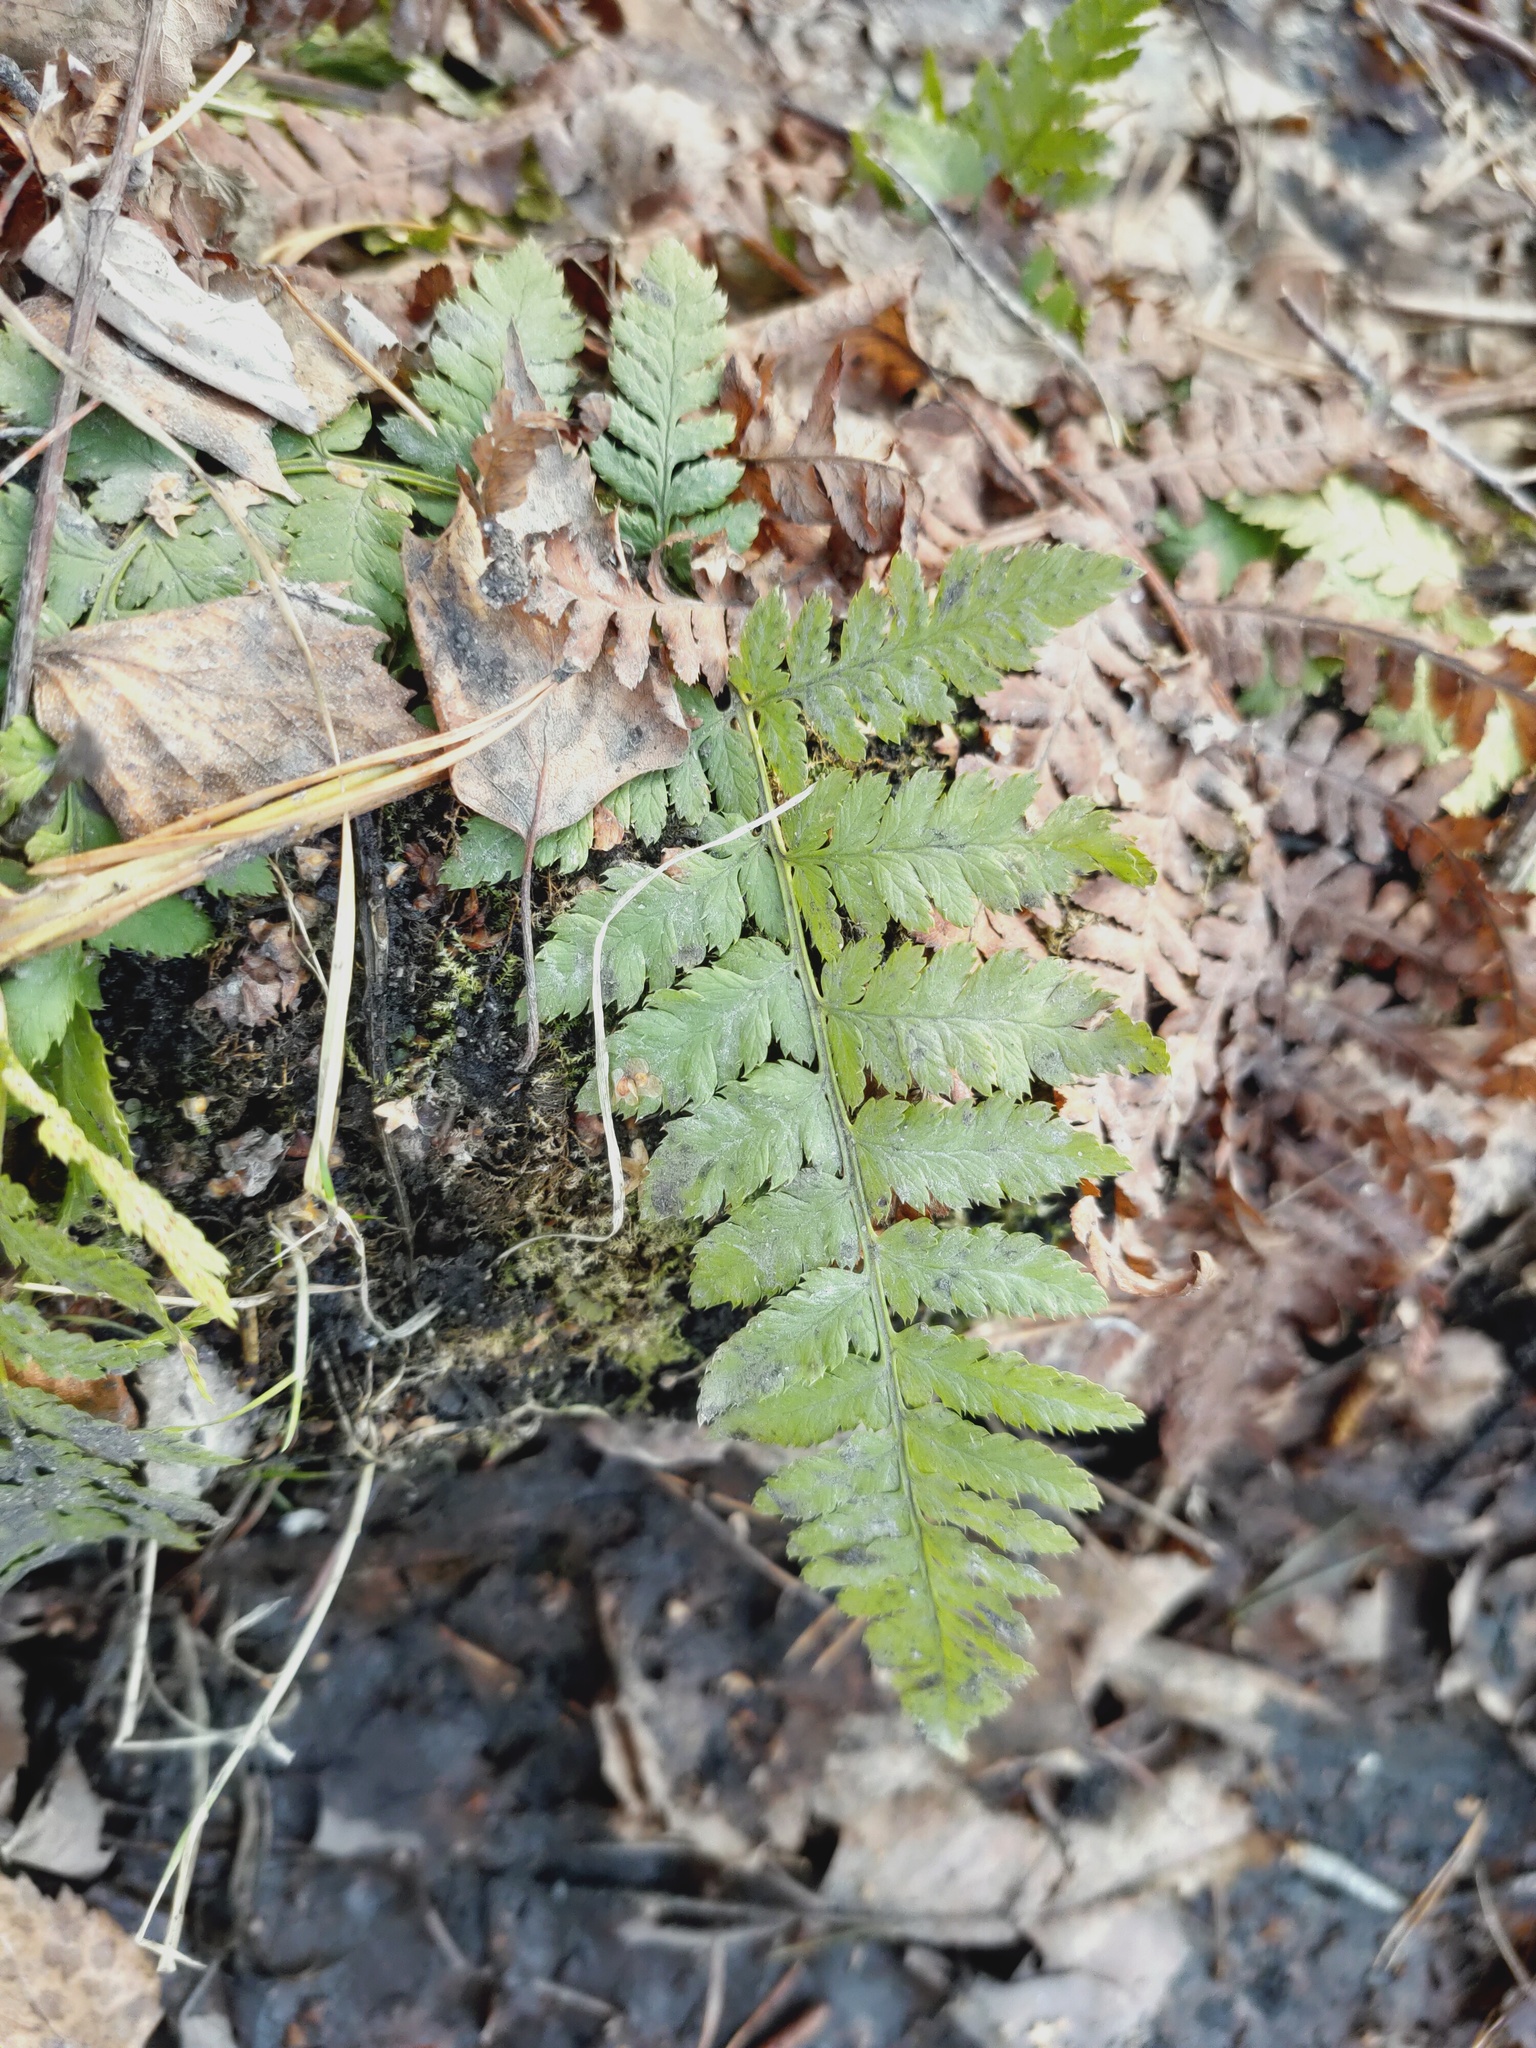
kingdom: Plantae
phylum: Tracheophyta
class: Polypodiopsida
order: Polypodiales
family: Dryopteridaceae
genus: Dryopteris
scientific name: Dryopteris carthusiana
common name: Narrow buckler-fern
